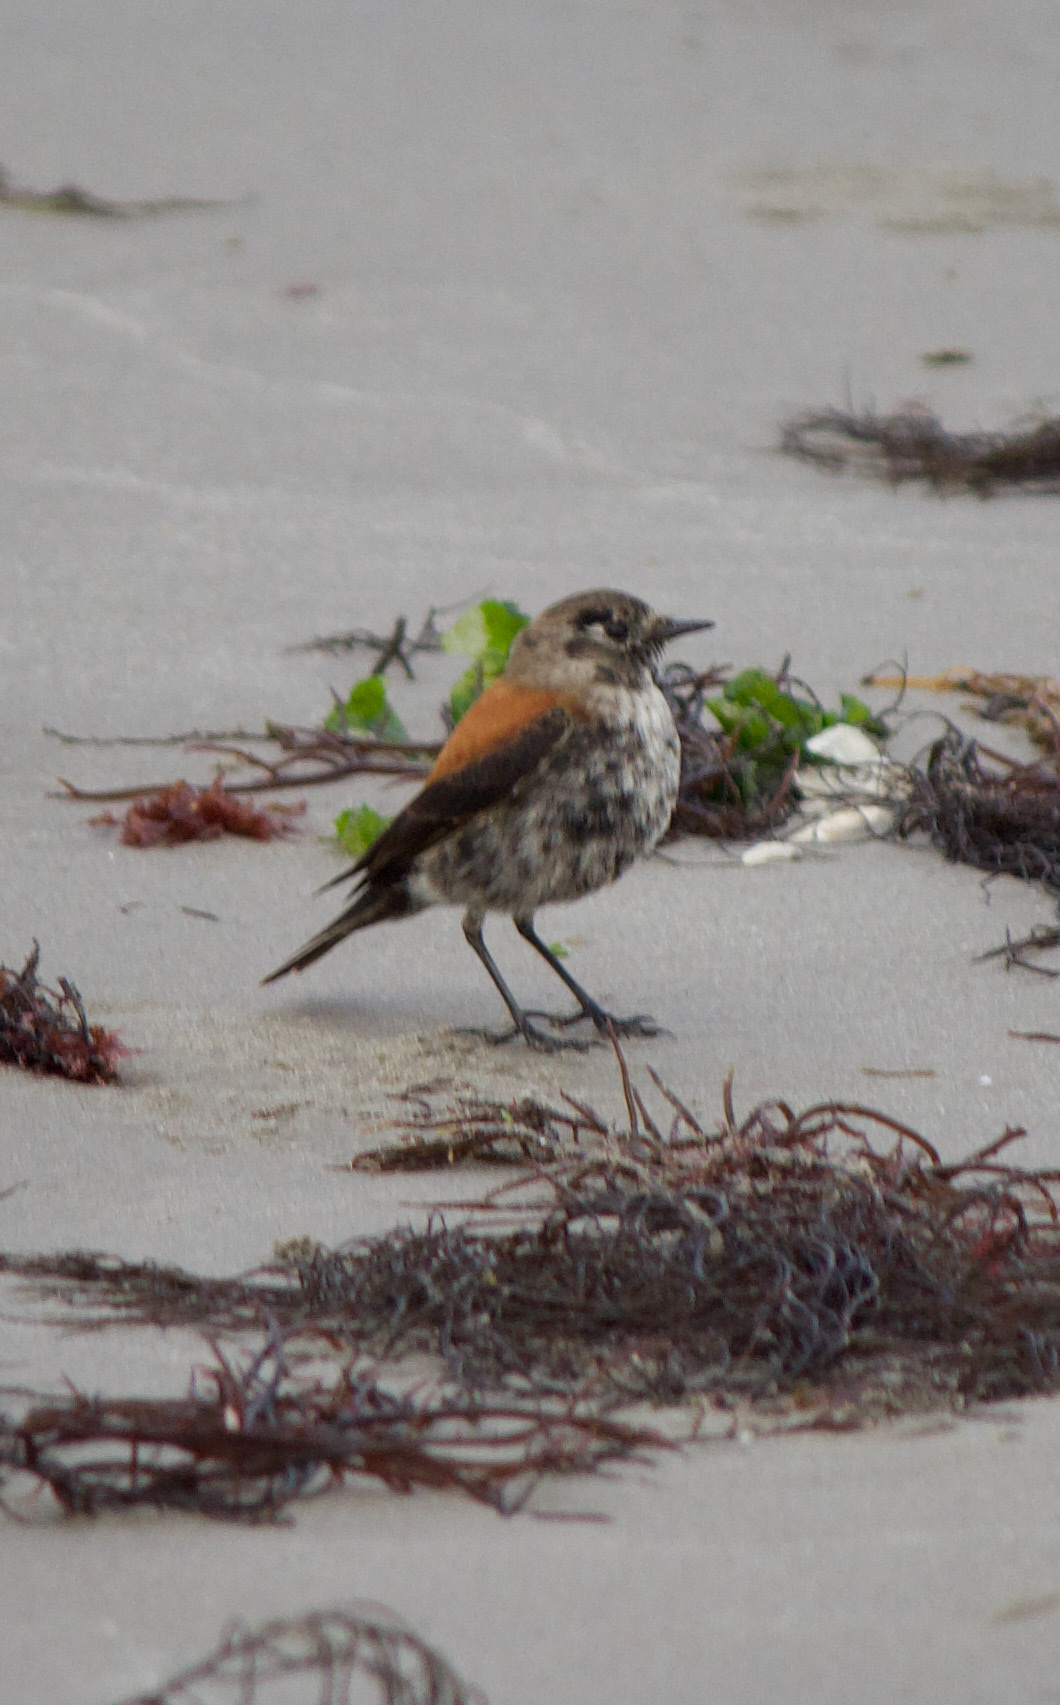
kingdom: Animalia
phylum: Chordata
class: Aves
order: Passeriformes
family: Tyrannidae
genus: Lessonia
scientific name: Lessonia rufa
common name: Austral negrito
